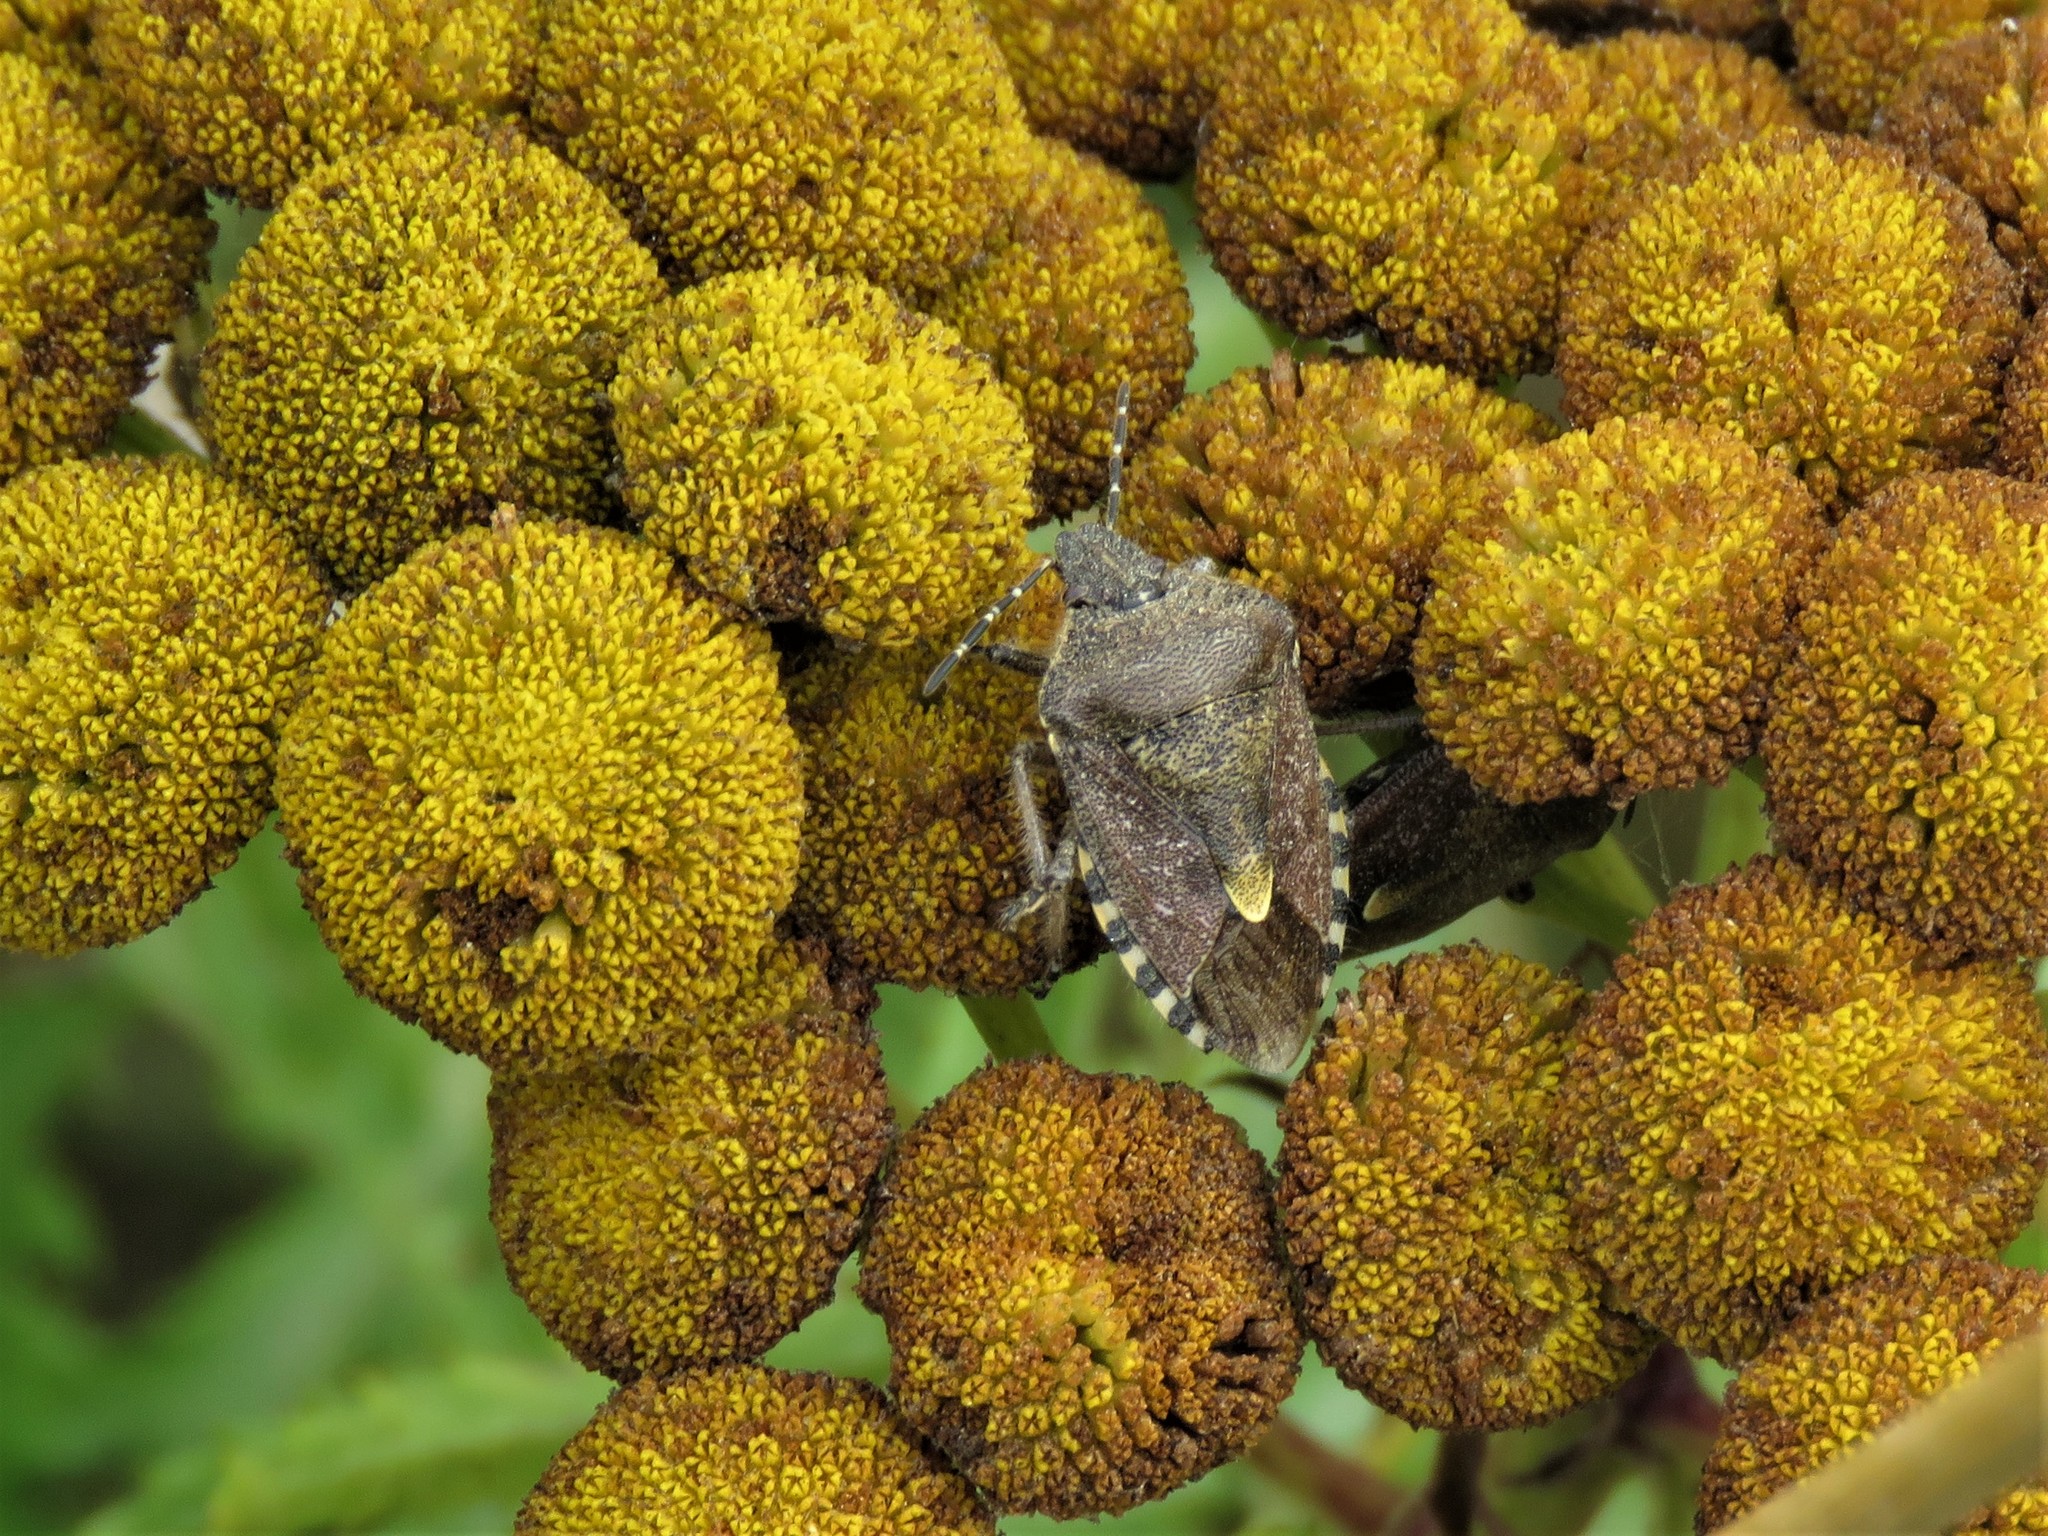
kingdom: Animalia
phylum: Arthropoda
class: Insecta
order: Hemiptera
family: Pentatomidae
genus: Dolycoris
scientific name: Dolycoris baccarum
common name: Sloe bug
